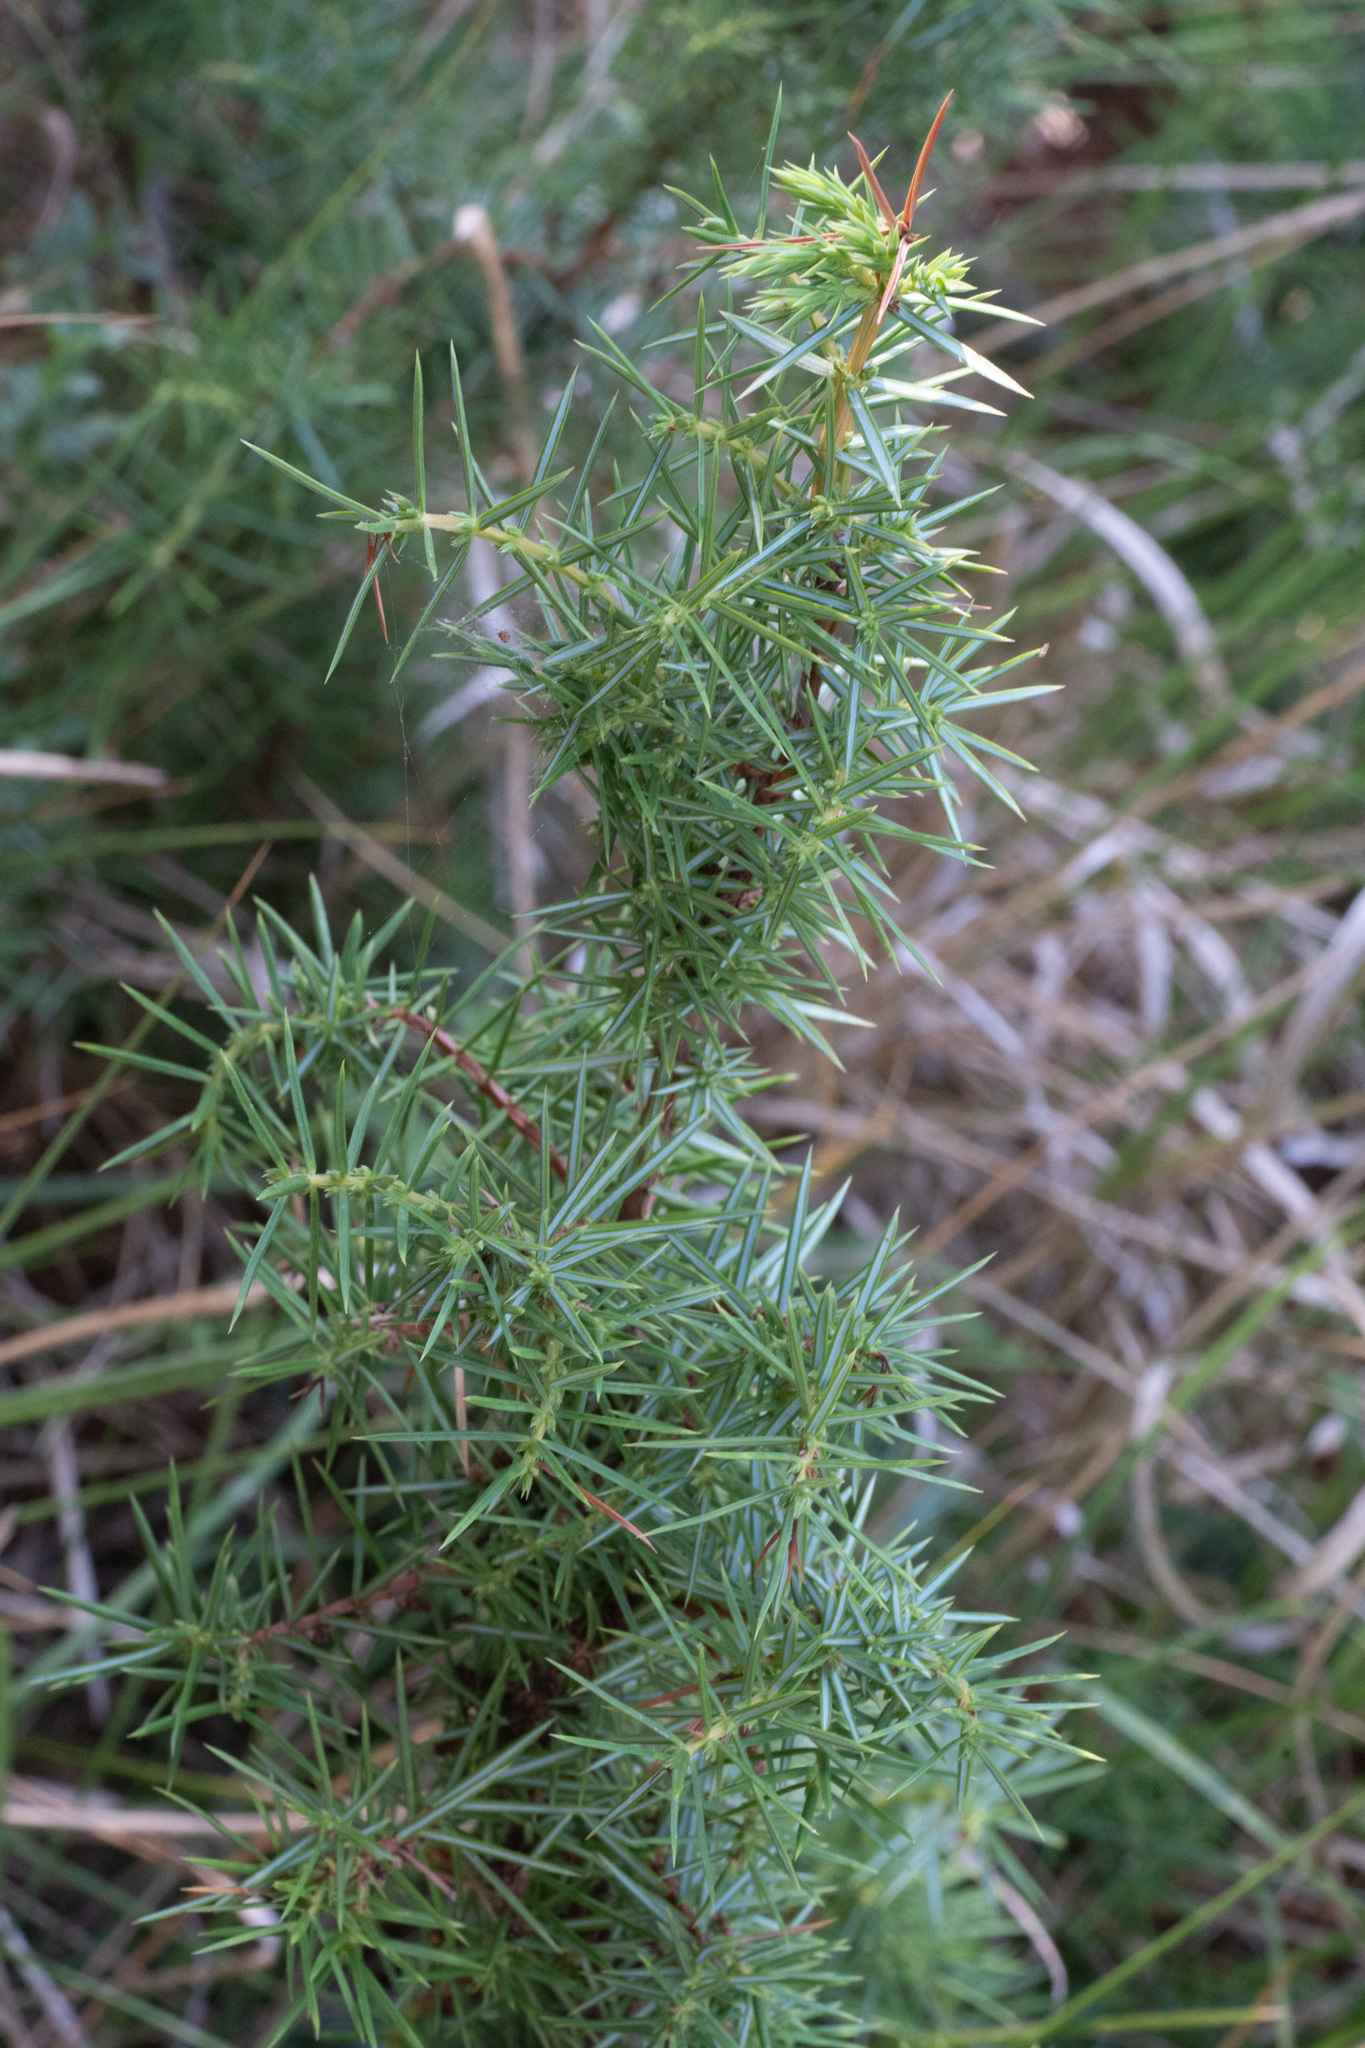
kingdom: Plantae
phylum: Tracheophyta
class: Pinopsida
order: Pinales
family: Cupressaceae
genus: Juniperus
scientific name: Juniperus communis
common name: Common juniper
